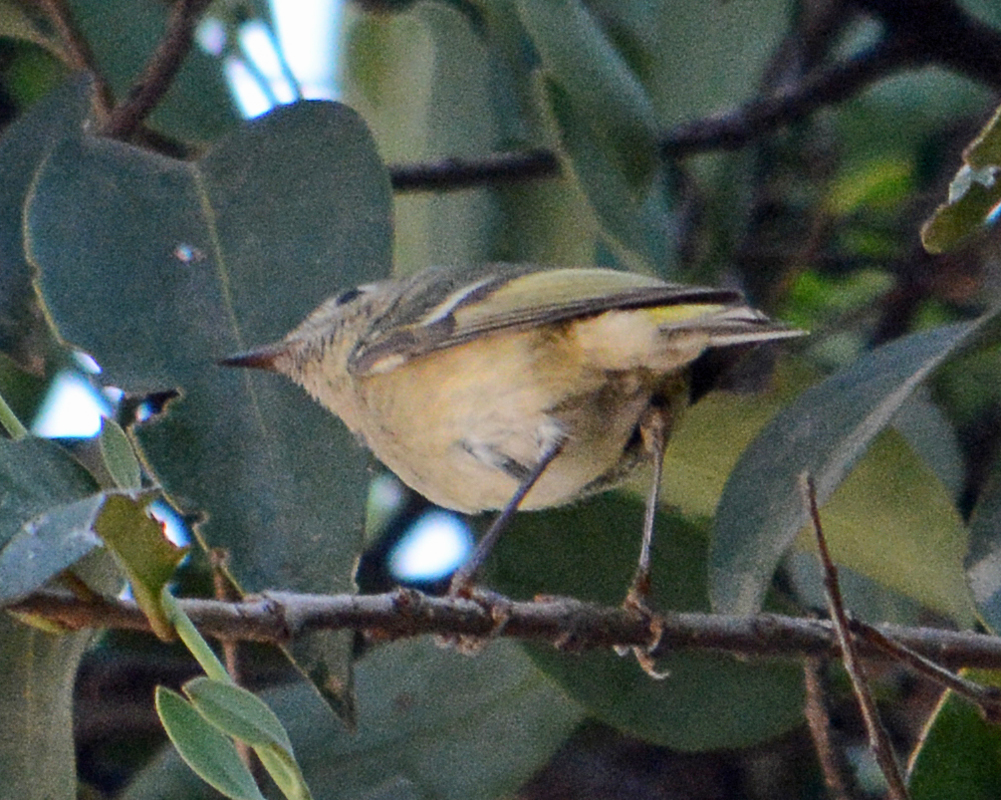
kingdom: Animalia
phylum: Chordata
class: Aves
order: Passeriformes
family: Regulidae
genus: Regulus
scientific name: Regulus calendula
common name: Ruby-crowned kinglet
